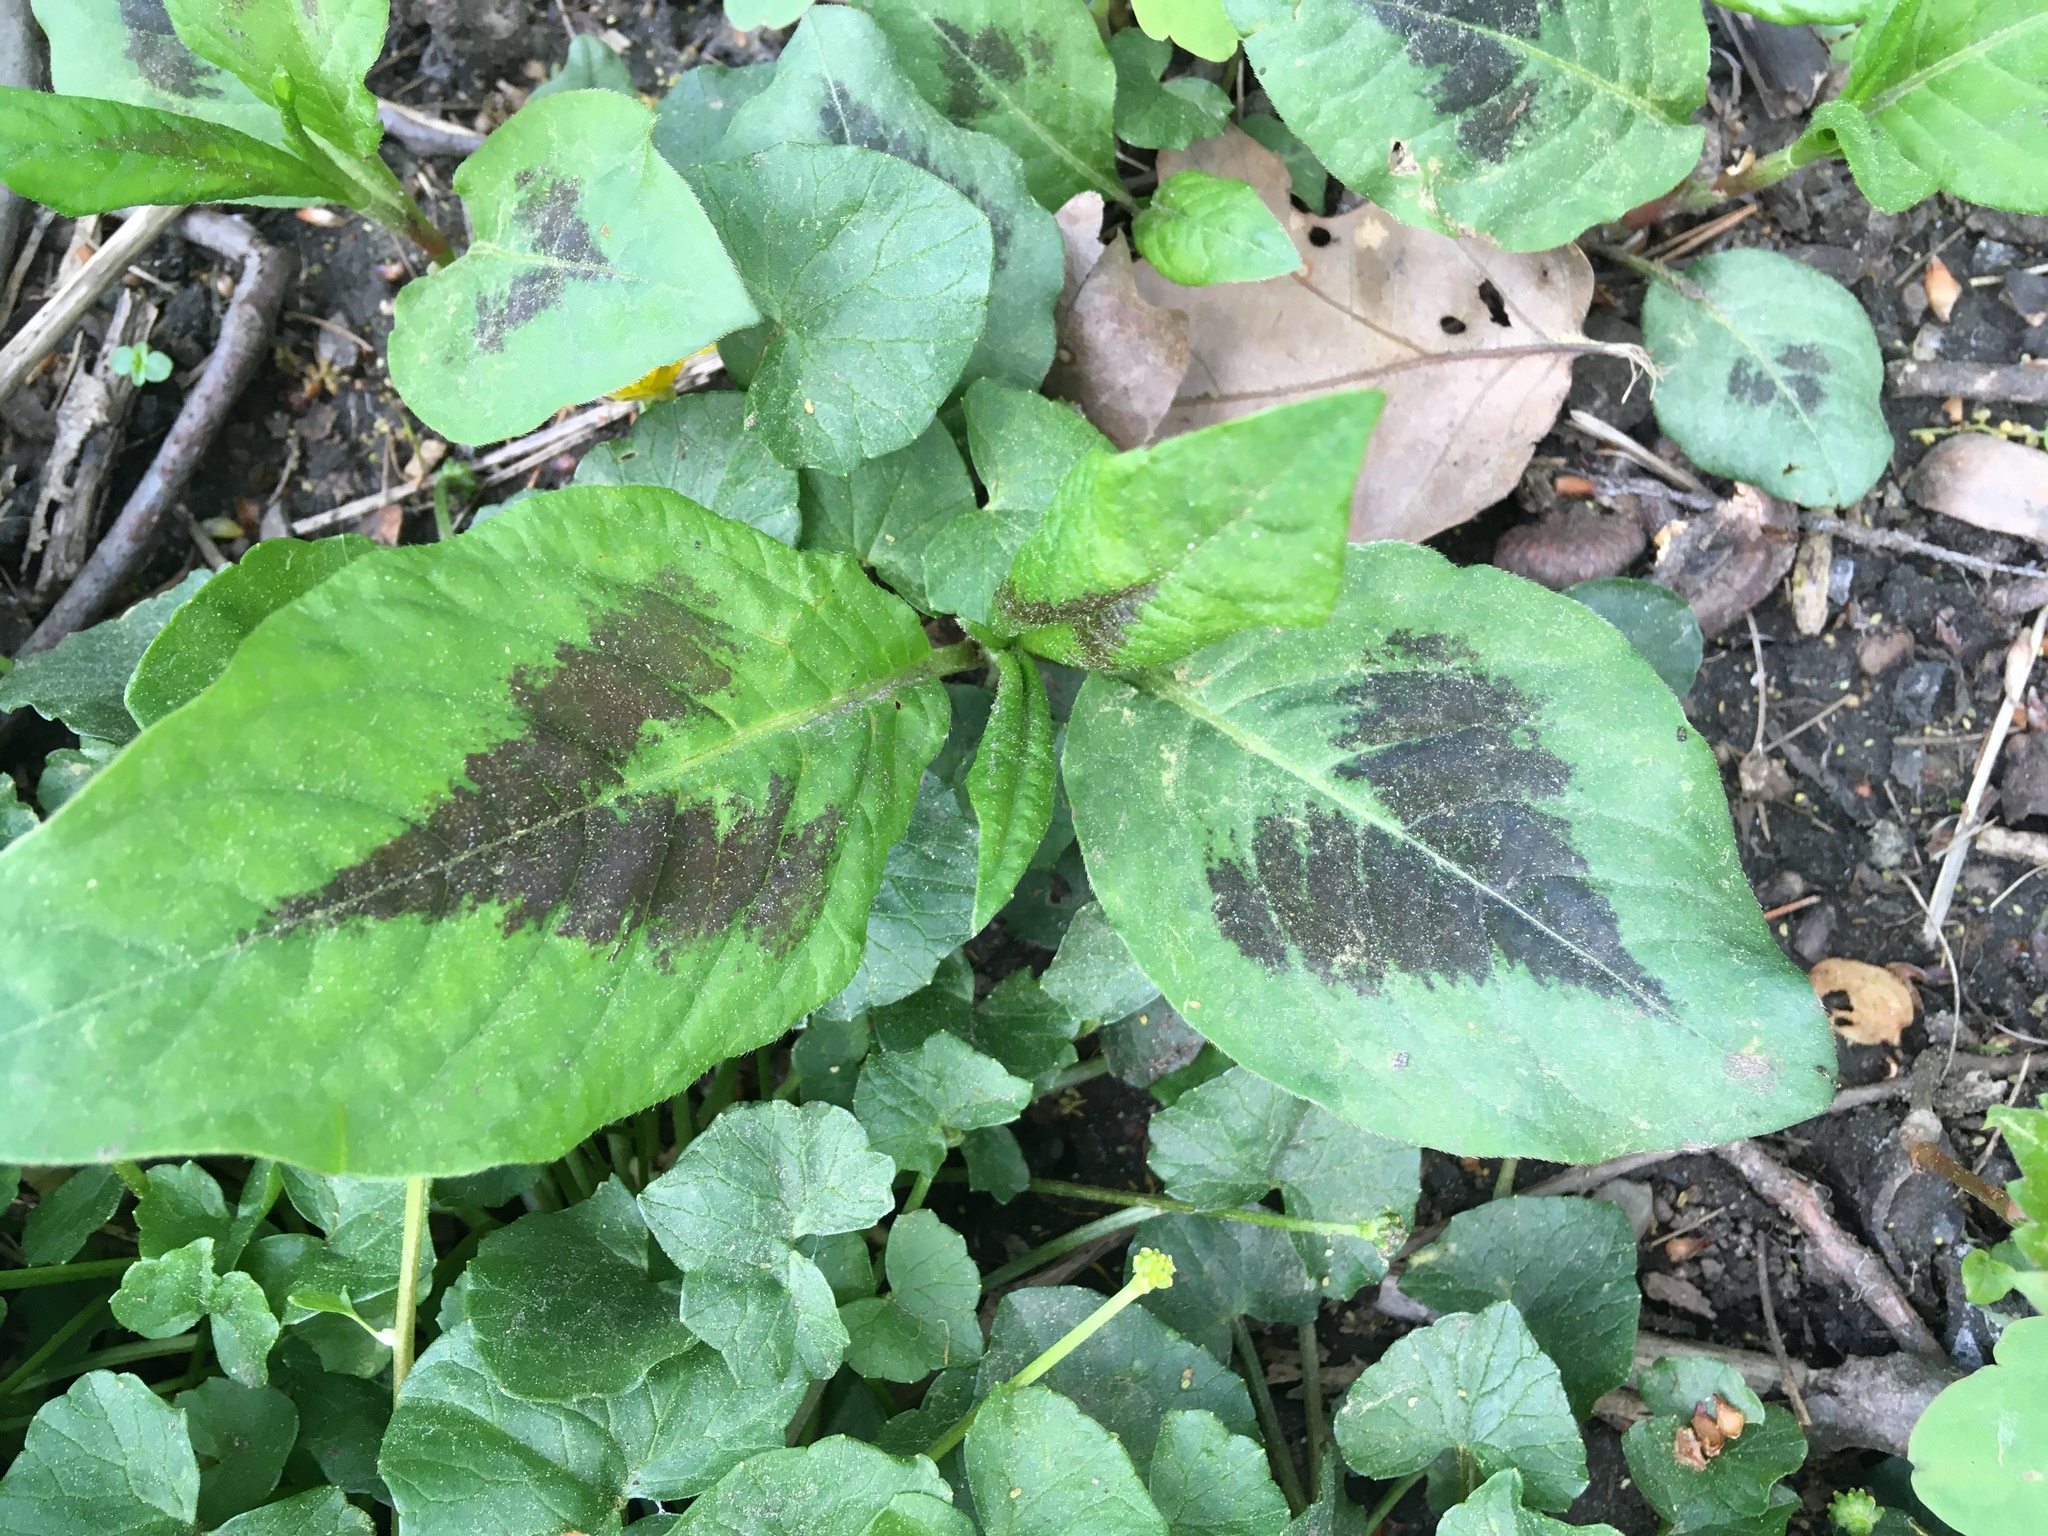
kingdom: Plantae
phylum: Tracheophyta
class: Magnoliopsida
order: Caryophyllales
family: Polygonaceae
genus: Persicaria
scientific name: Persicaria virginiana
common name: Jumpseed
